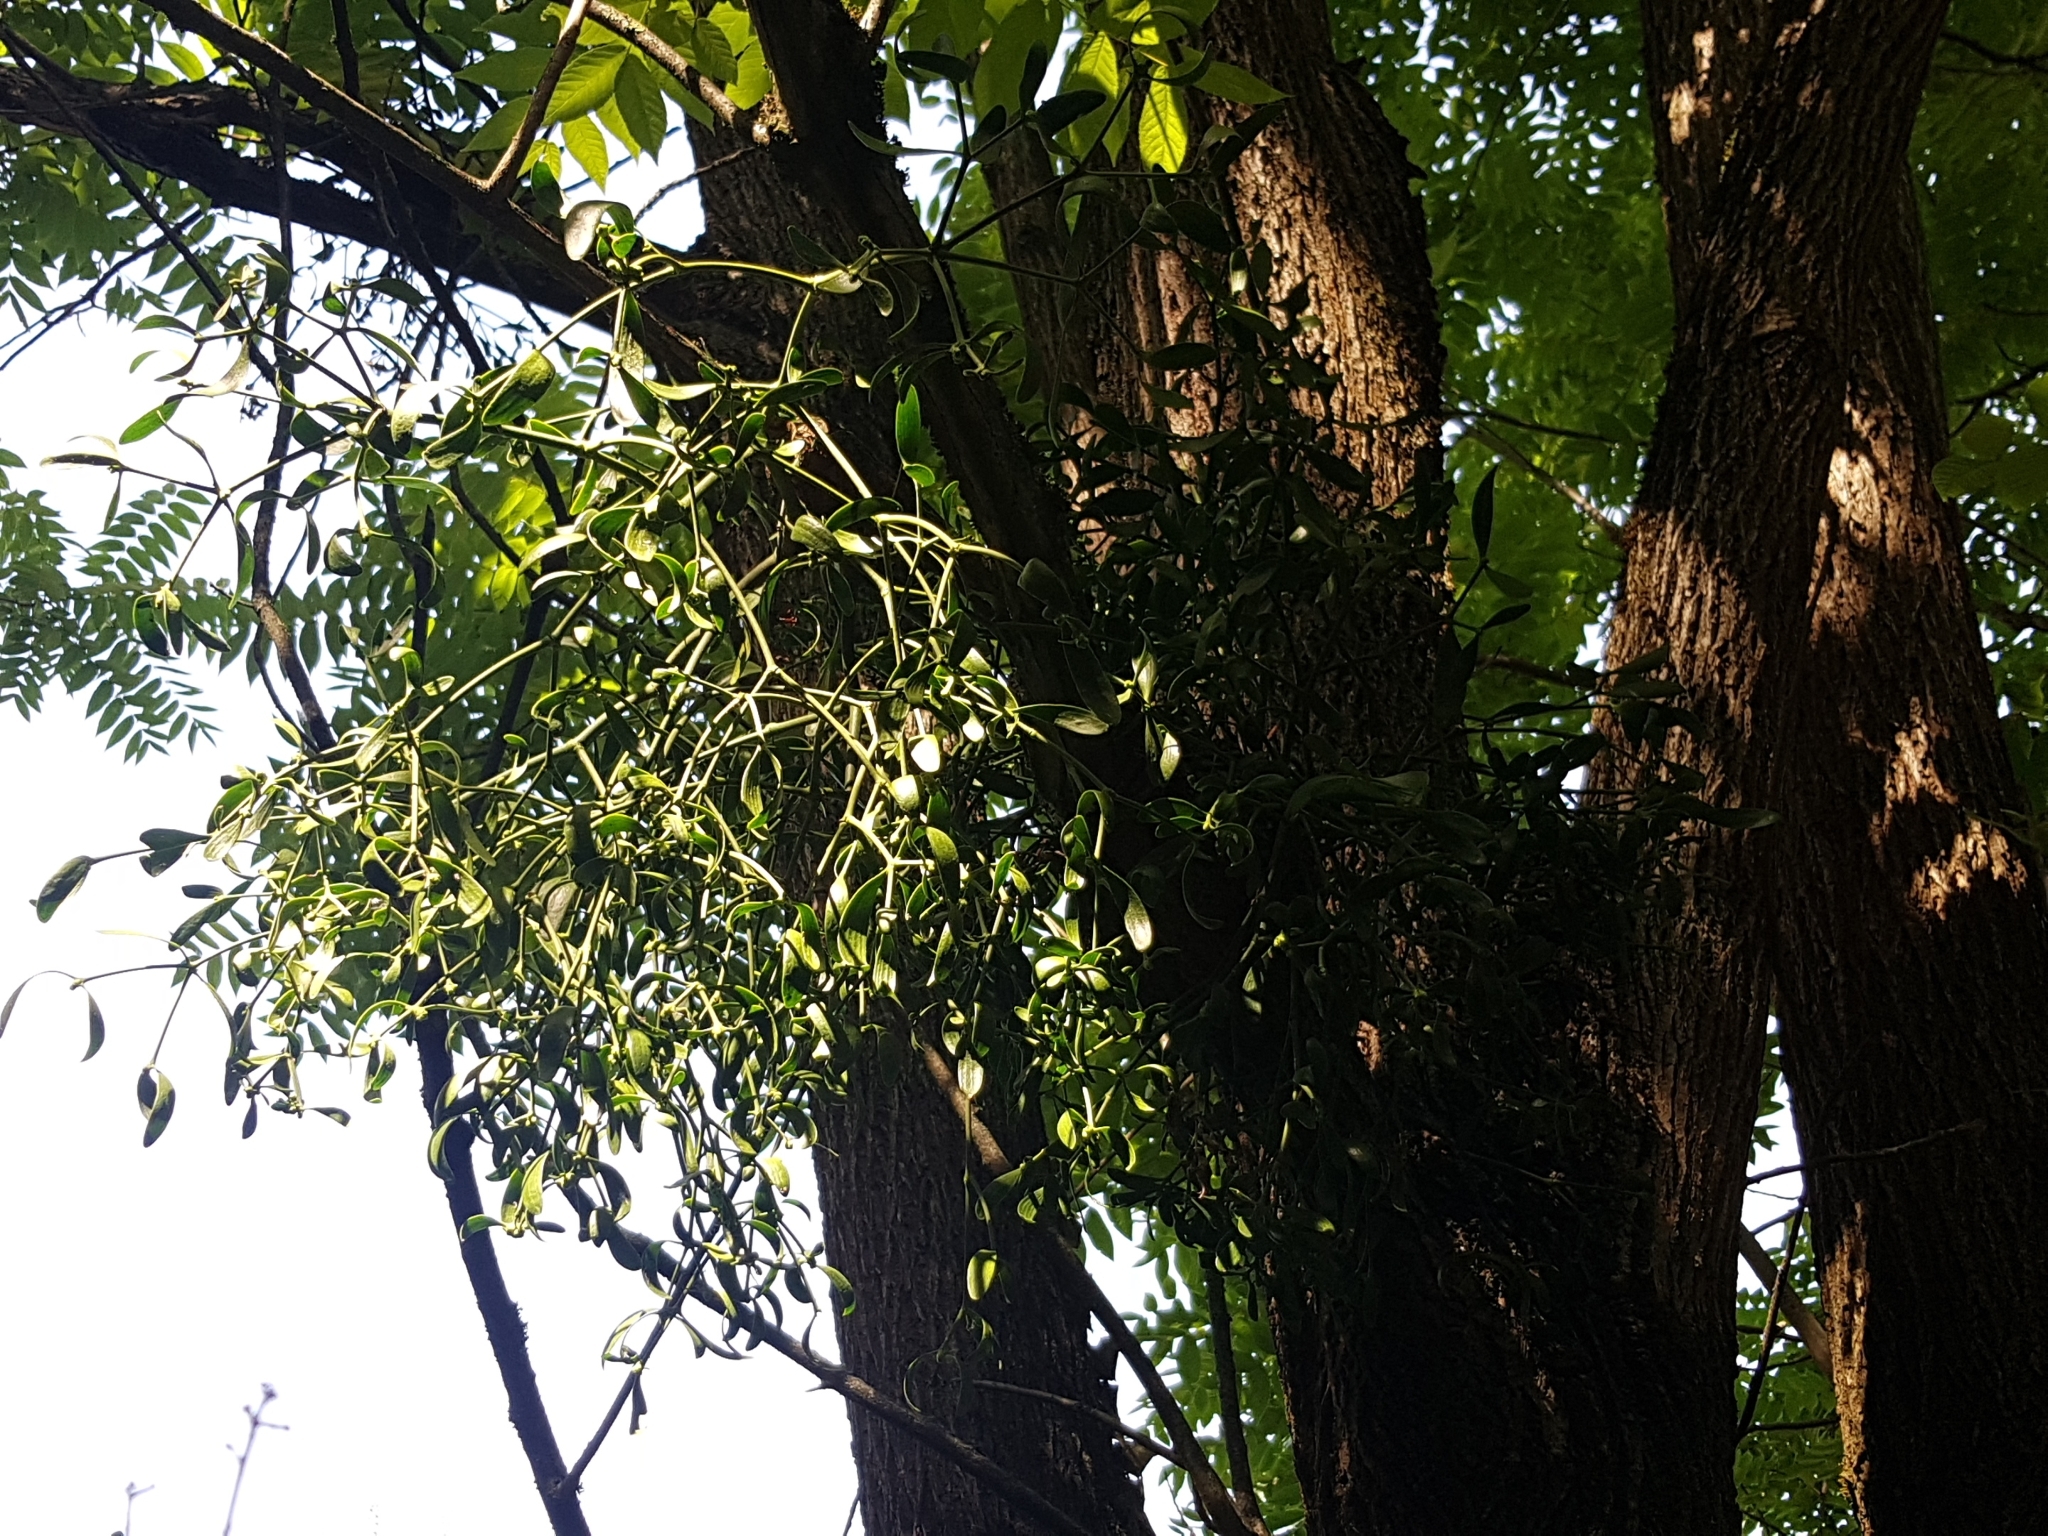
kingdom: Plantae
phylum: Tracheophyta
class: Magnoliopsida
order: Santalales
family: Viscaceae
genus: Viscum
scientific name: Viscum album
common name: Mistletoe
